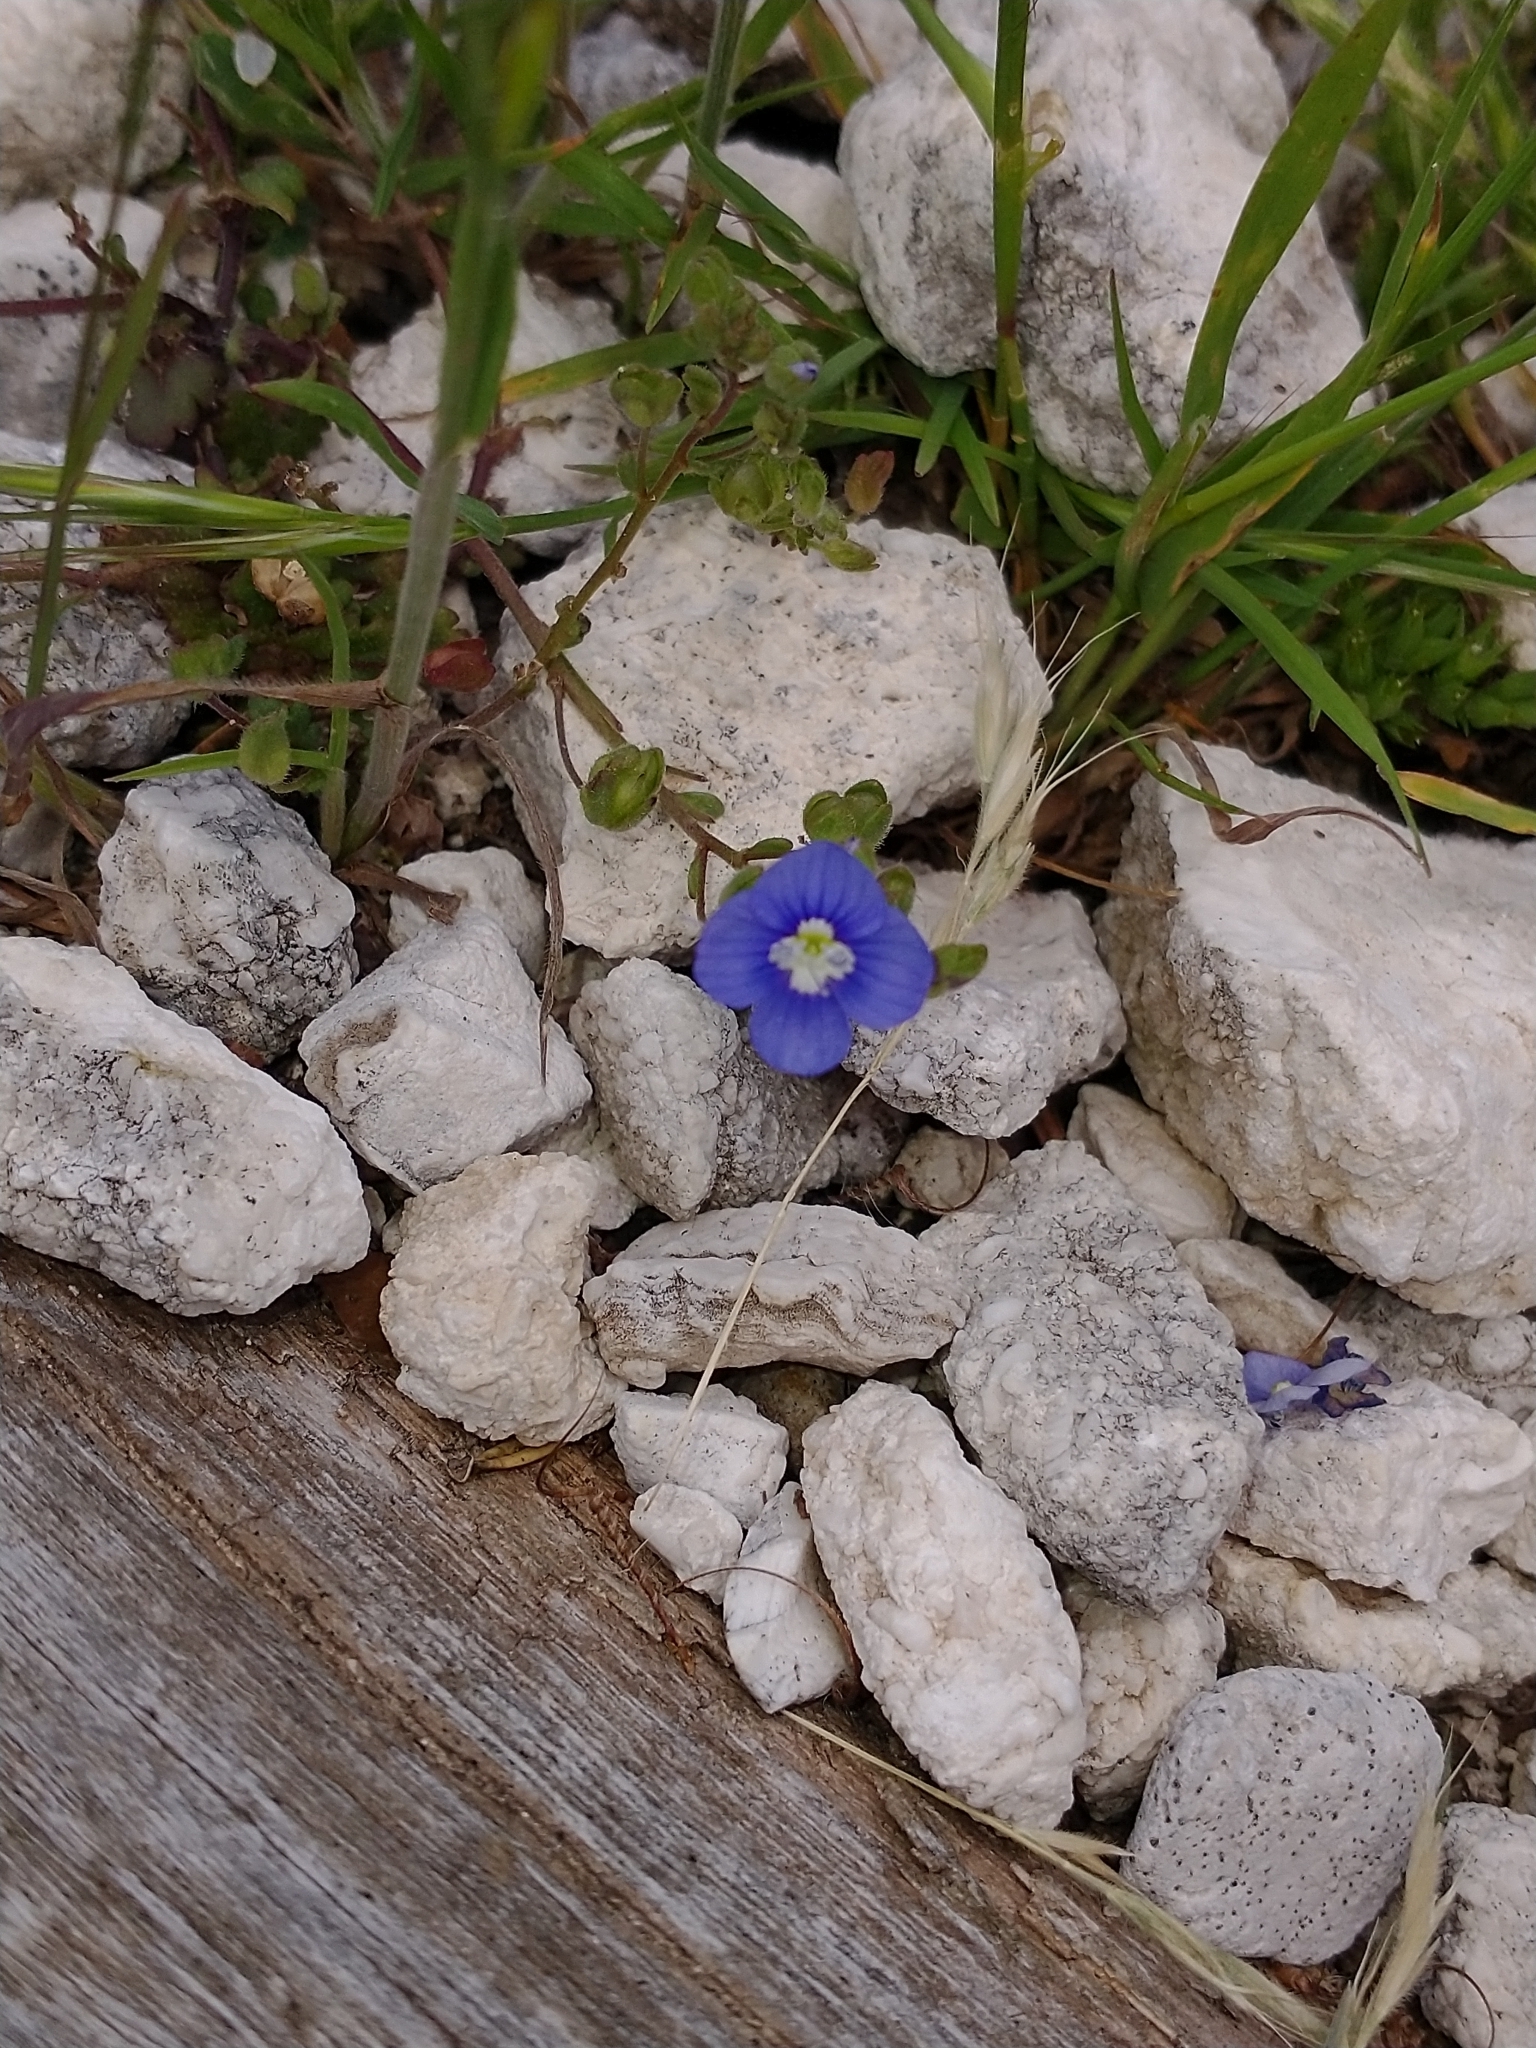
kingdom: Plantae
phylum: Tracheophyta
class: Magnoliopsida
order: Lamiales
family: Plantaginaceae
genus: Veronica
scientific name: Veronica glauca
